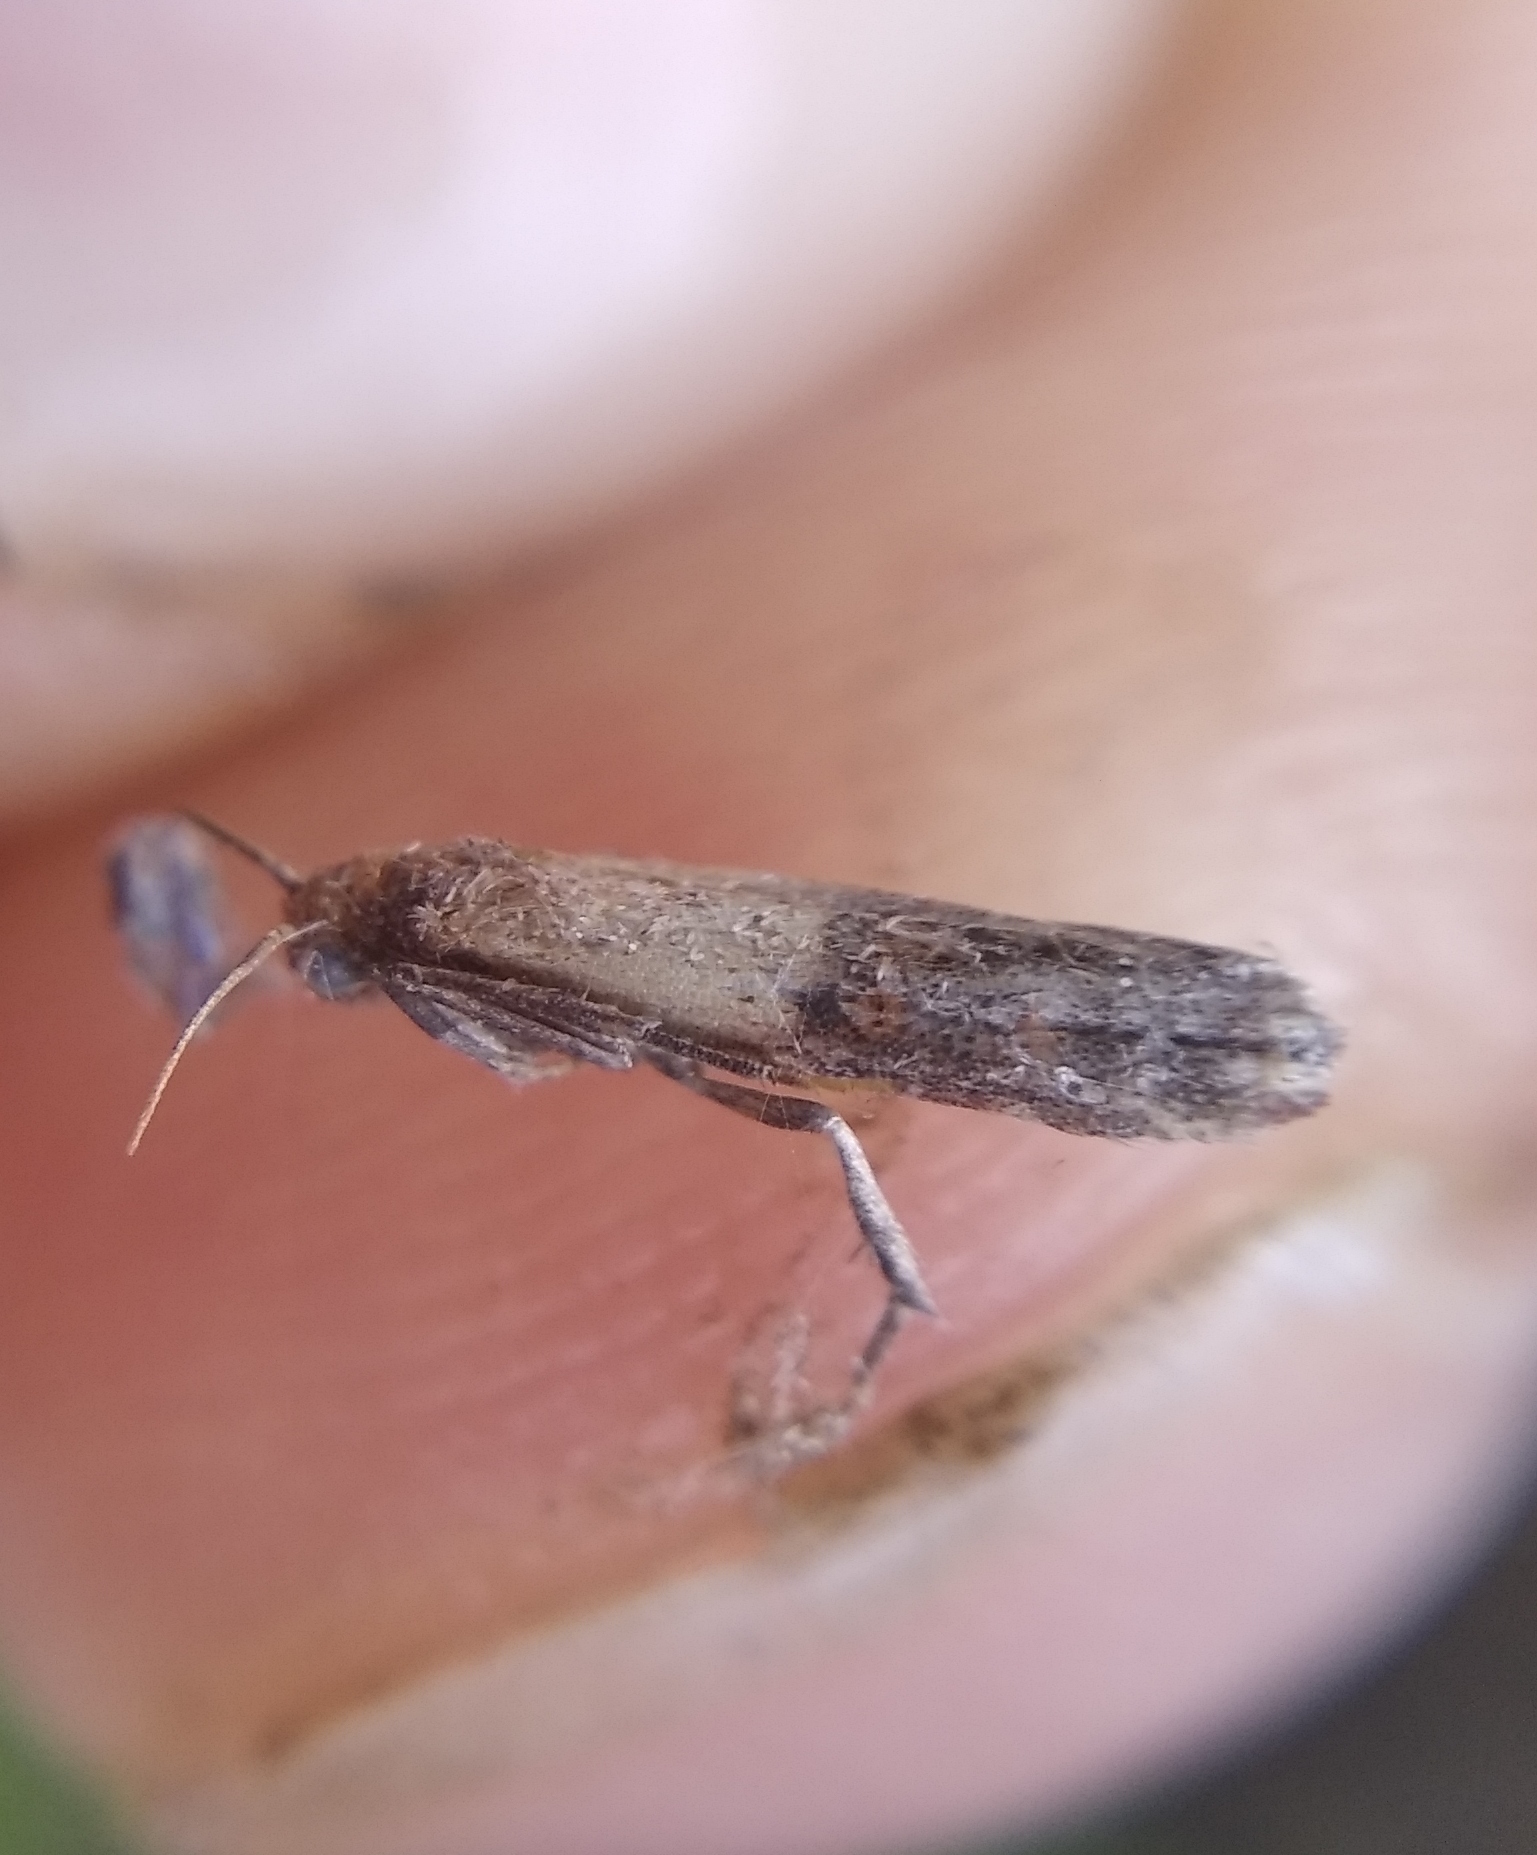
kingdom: Animalia
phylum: Arthropoda
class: Insecta
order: Lepidoptera
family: Pyralidae
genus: Plodia
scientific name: Plodia interpunctella
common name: Indian meal moth
